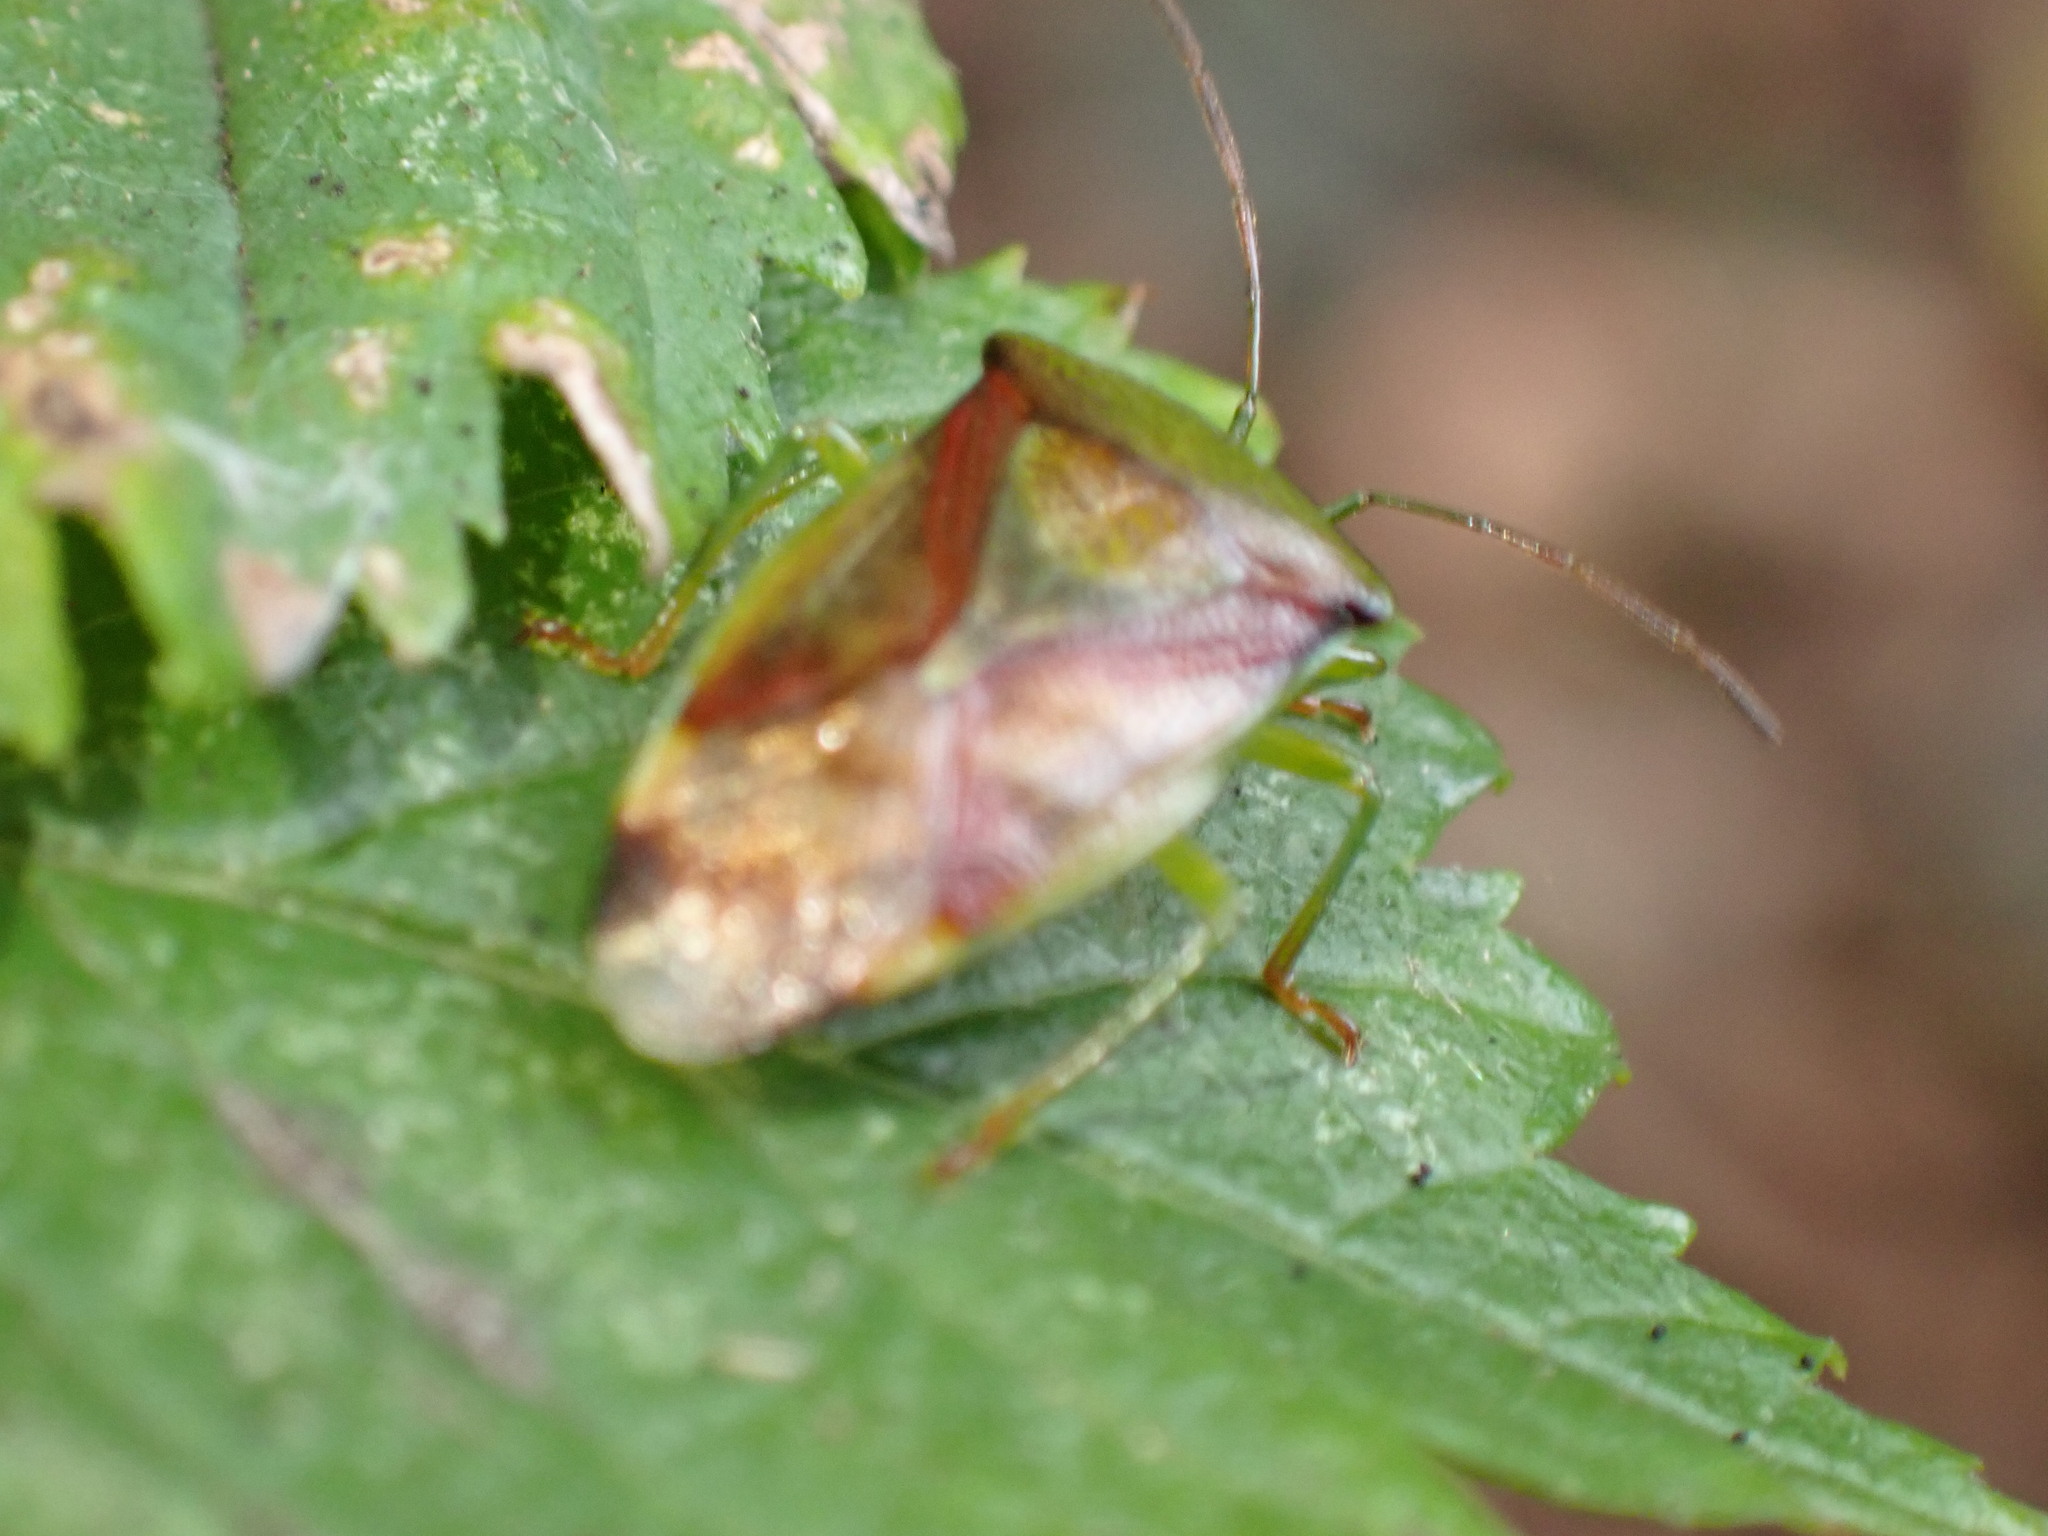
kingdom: Animalia
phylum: Arthropoda
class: Insecta
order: Hemiptera
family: Acanthosomatidae
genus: Elasmostethus
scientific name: Elasmostethus interstinctus
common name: Birch shieldbug
